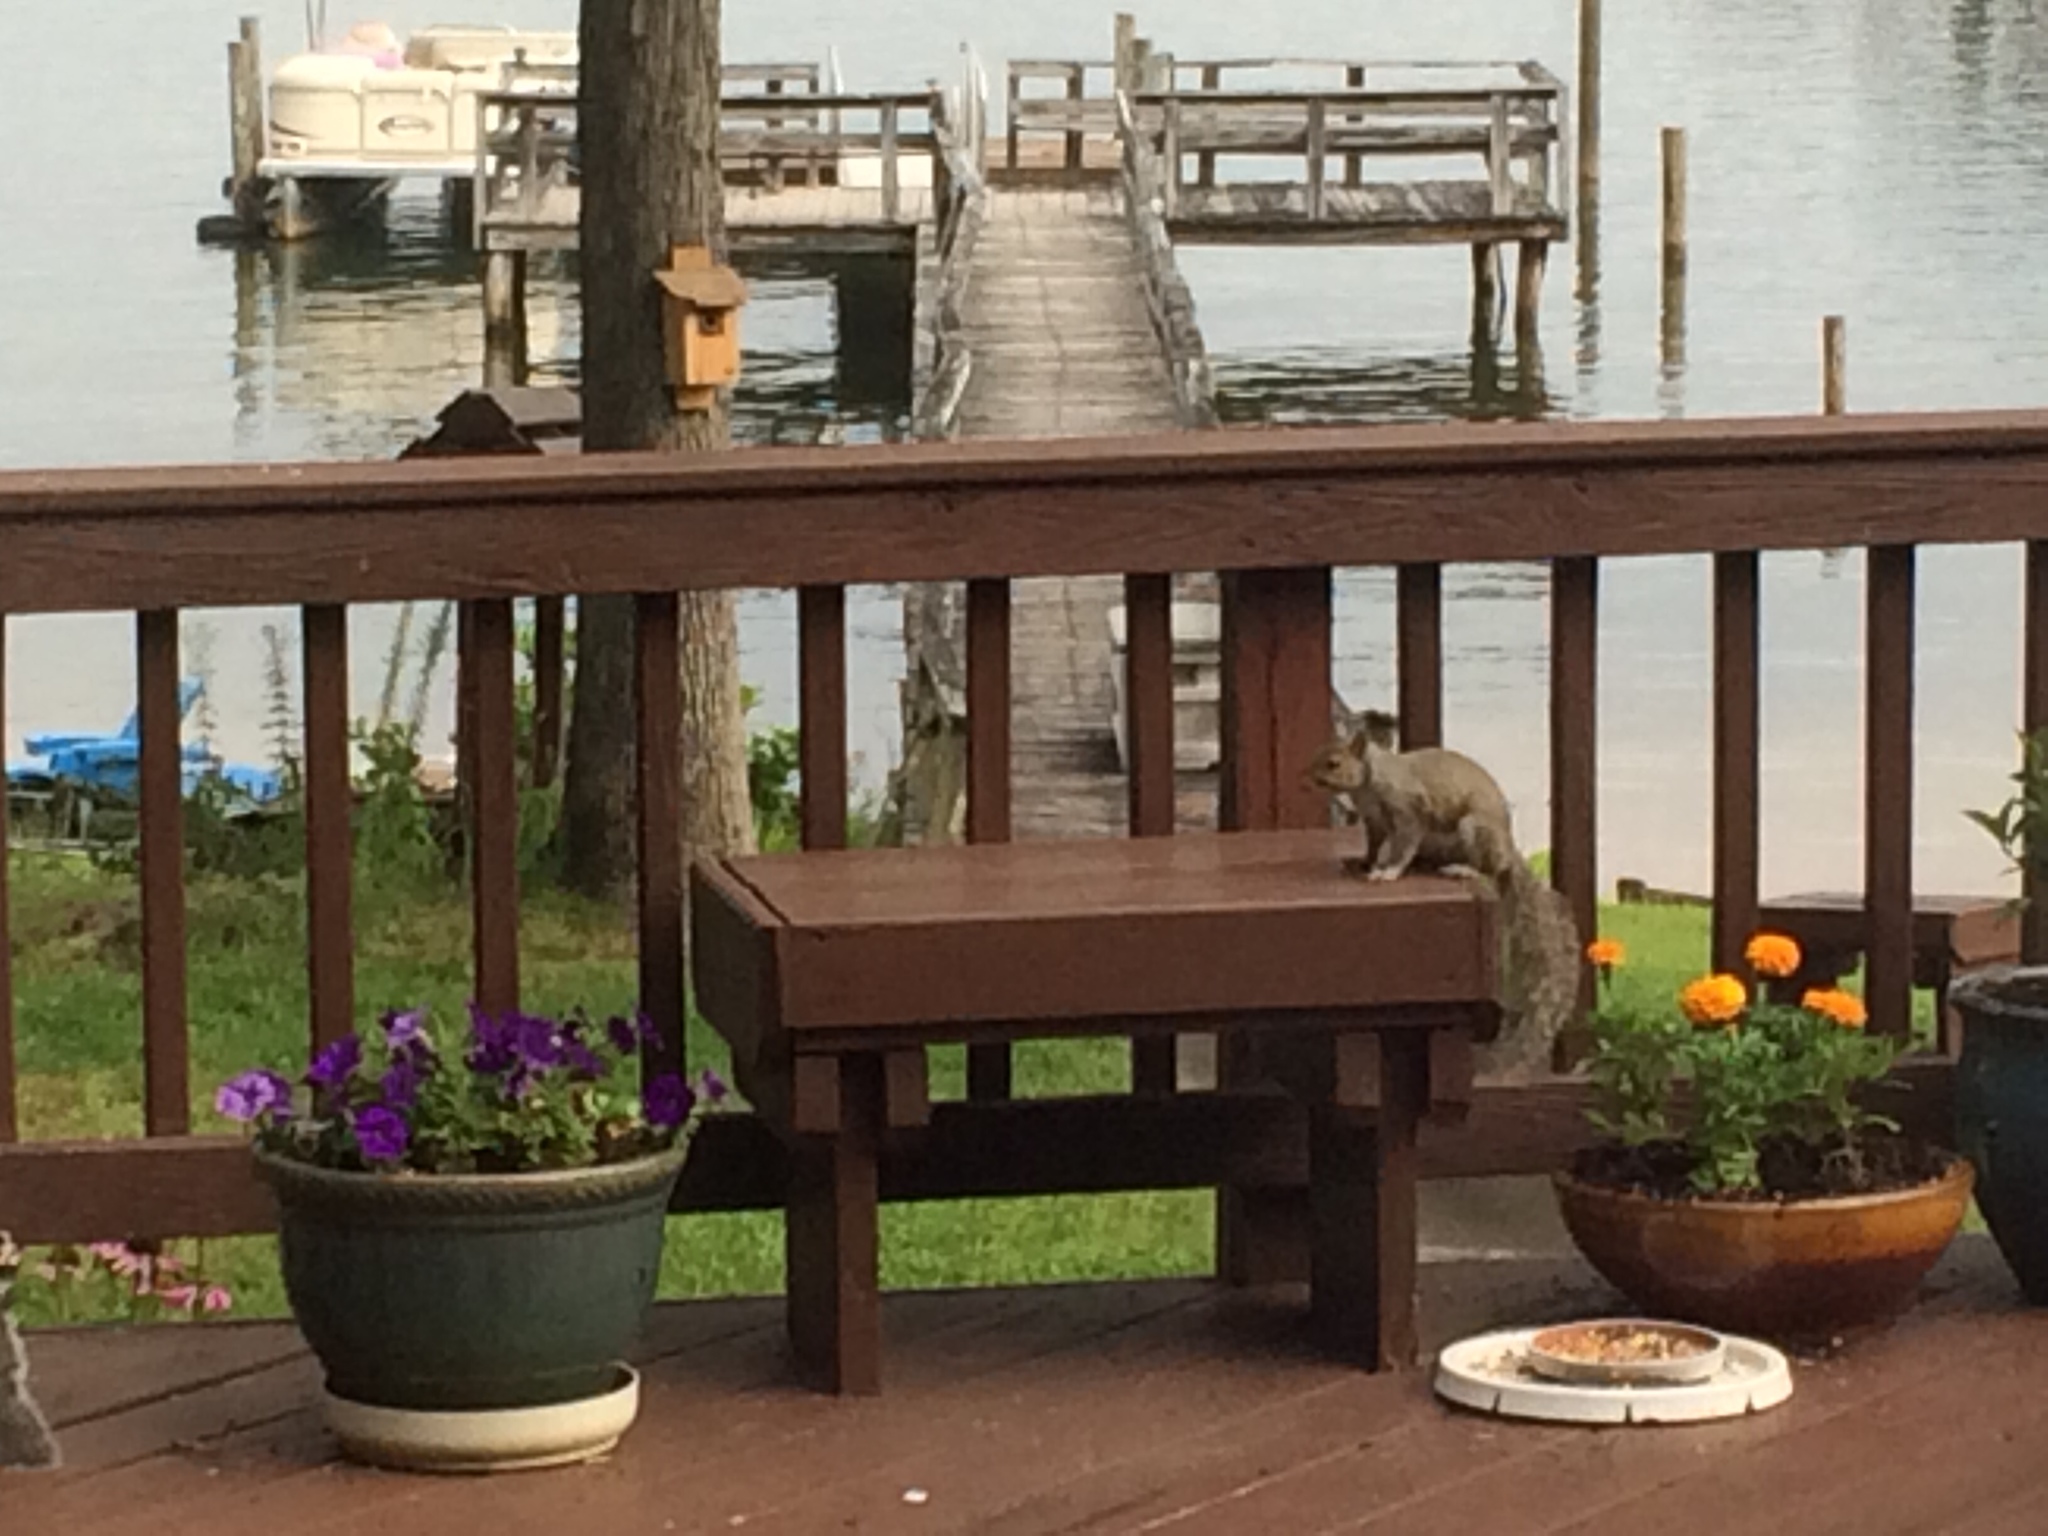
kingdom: Animalia
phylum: Chordata
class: Mammalia
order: Rodentia
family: Sciuridae
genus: Sciurus
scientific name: Sciurus carolinensis
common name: Eastern gray squirrel
